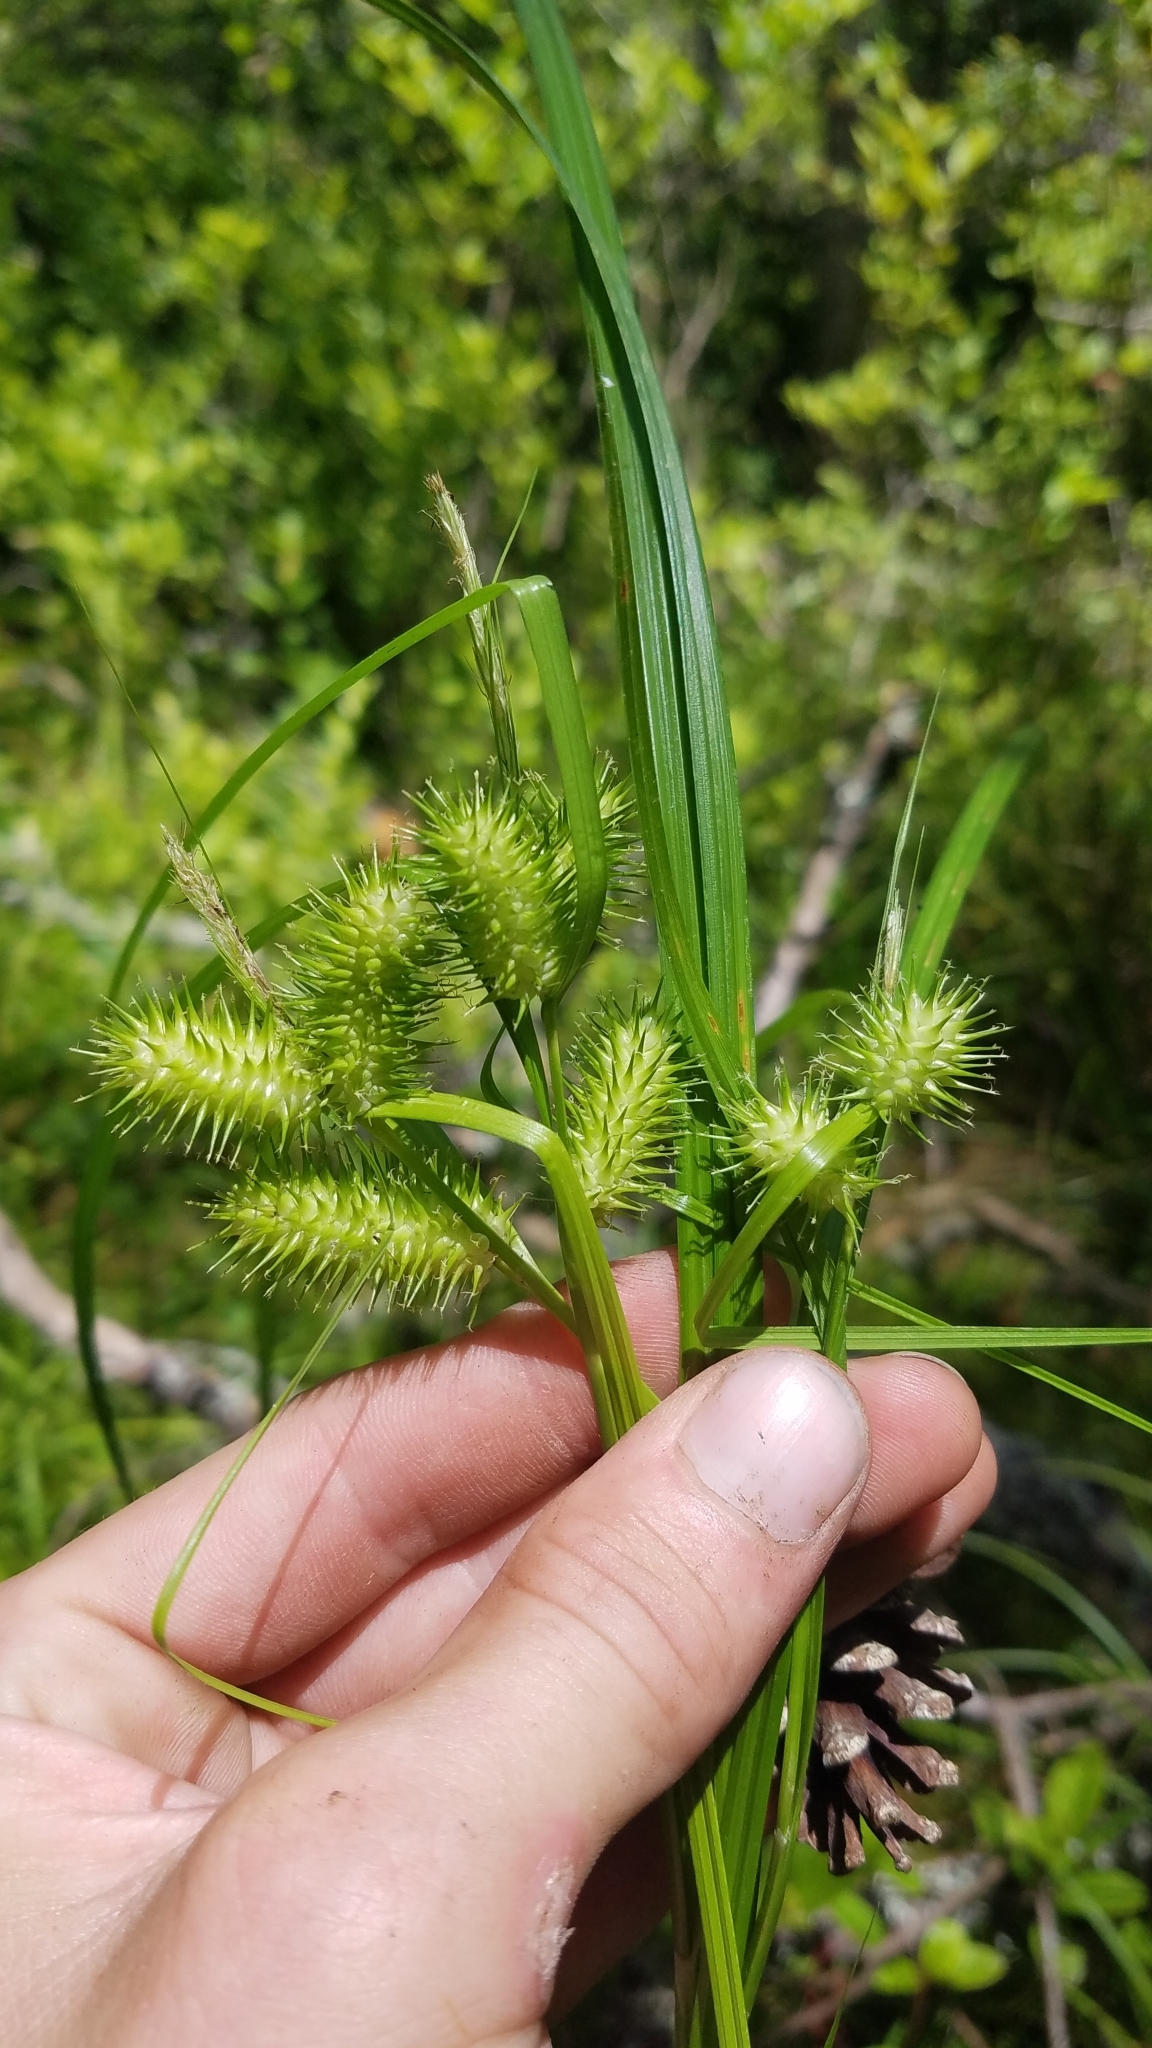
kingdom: Plantae
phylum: Tracheophyta
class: Liliopsida
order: Poales
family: Cyperaceae
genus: Carex
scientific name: Carex lurida
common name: Sallow sedge
